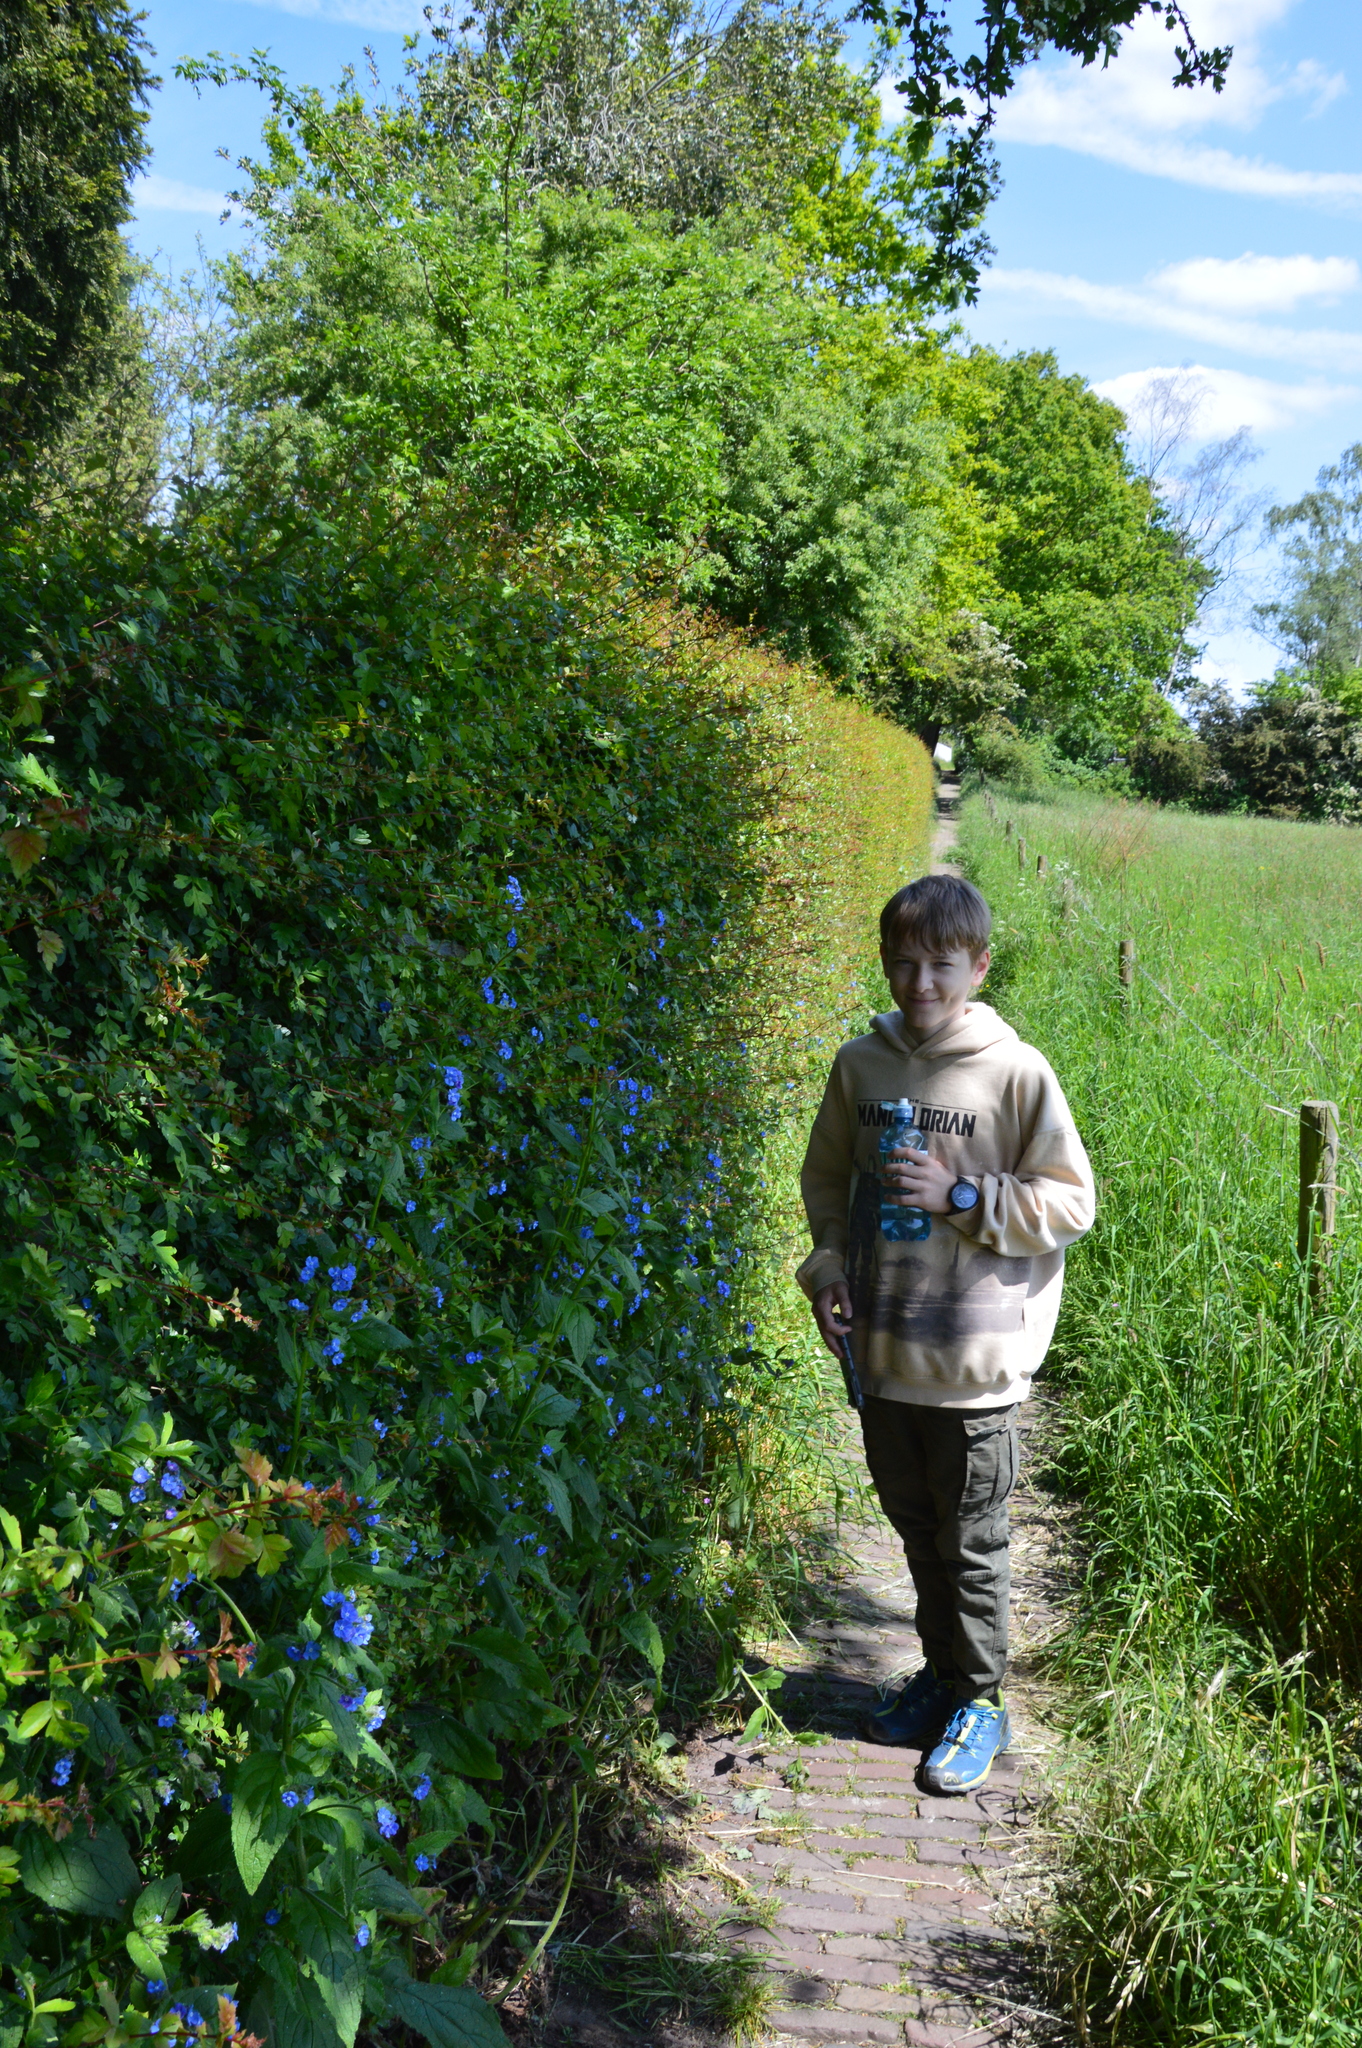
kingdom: Plantae
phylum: Tracheophyta
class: Magnoliopsida
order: Boraginales
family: Boraginaceae
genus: Pentaglottis
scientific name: Pentaglottis sempervirens
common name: Green alkanet
